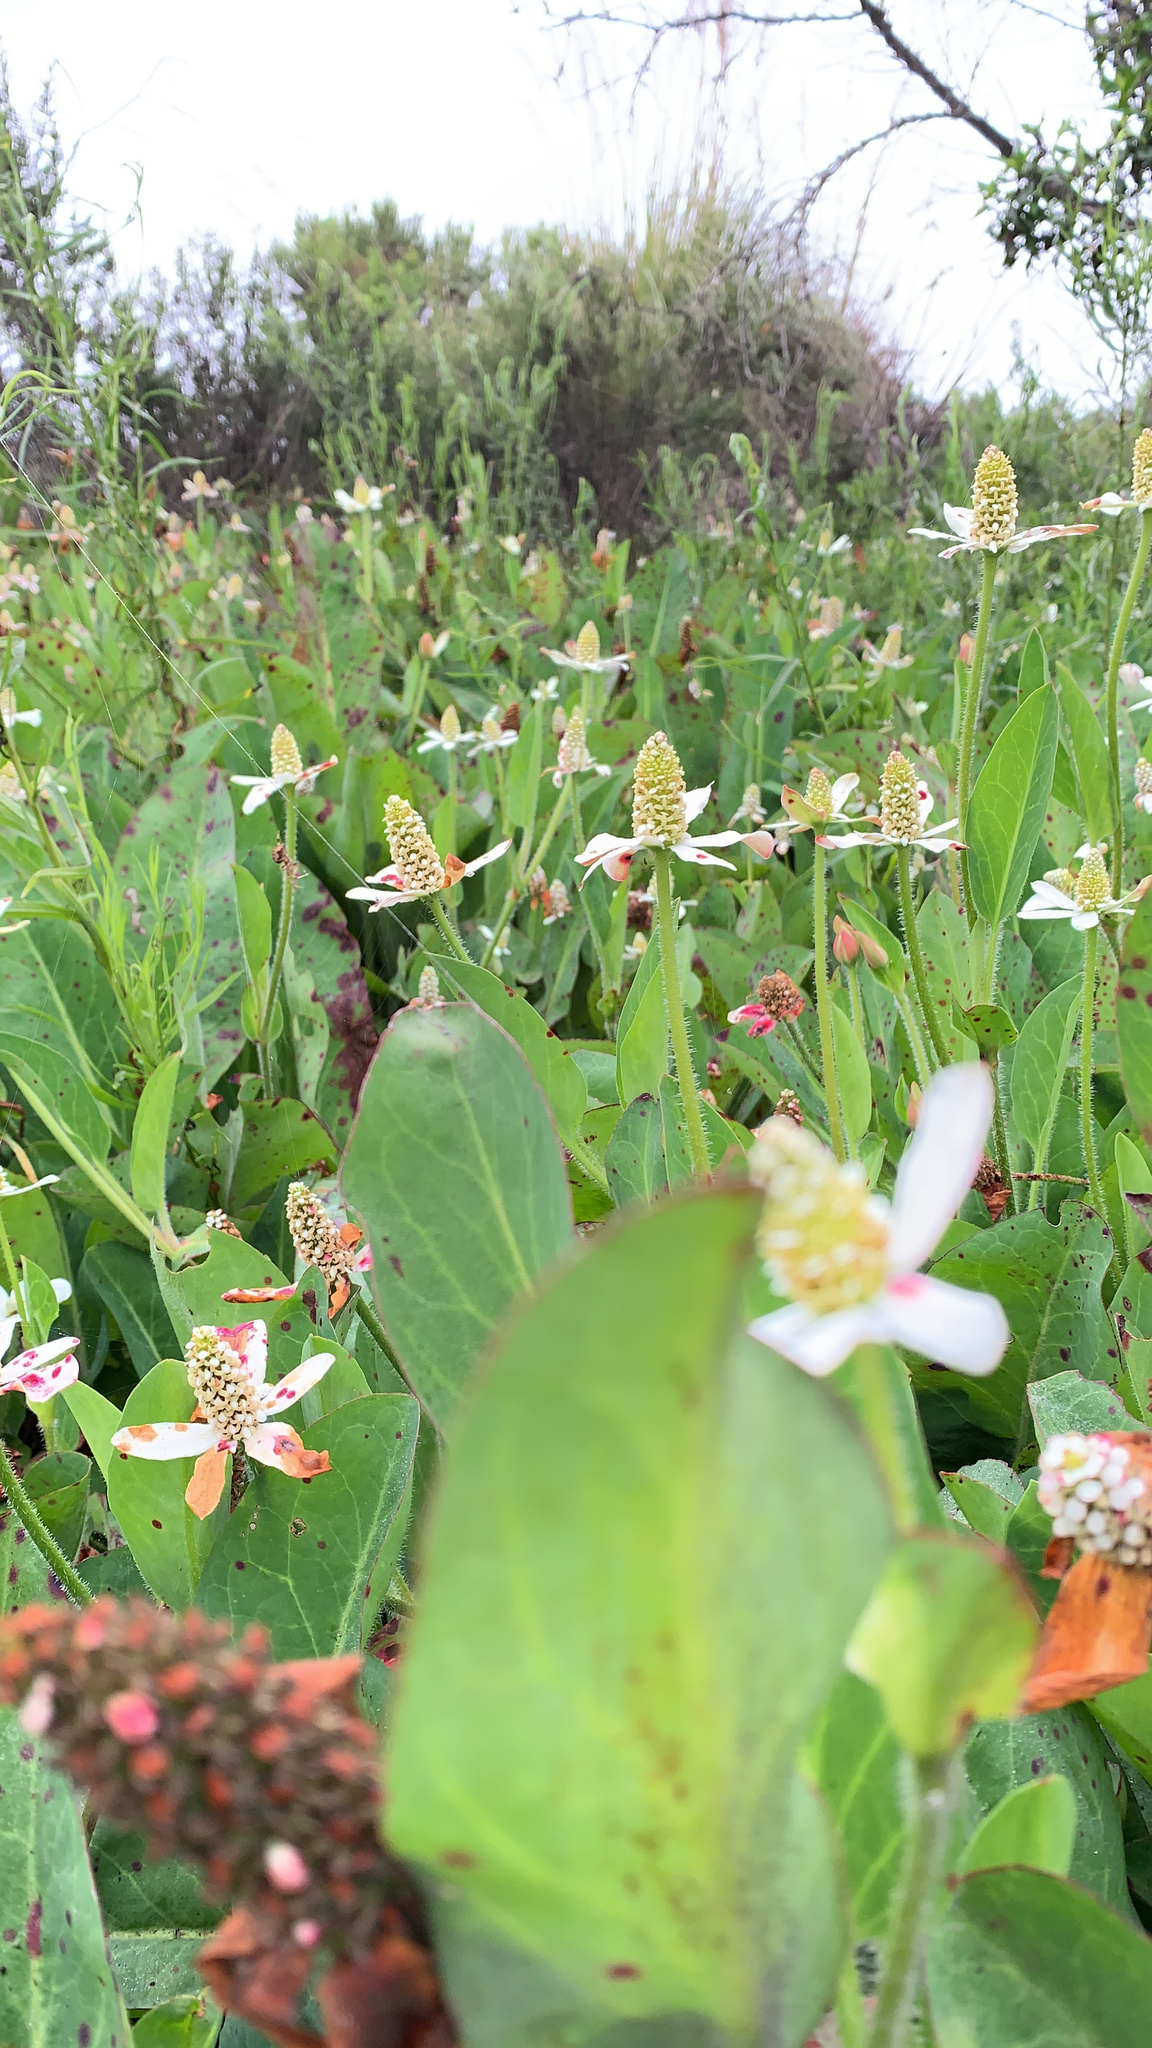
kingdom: Plantae
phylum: Tracheophyta
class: Magnoliopsida
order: Piperales
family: Saururaceae
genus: Anemopsis
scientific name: Anemopsis californica
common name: Apache-beads
